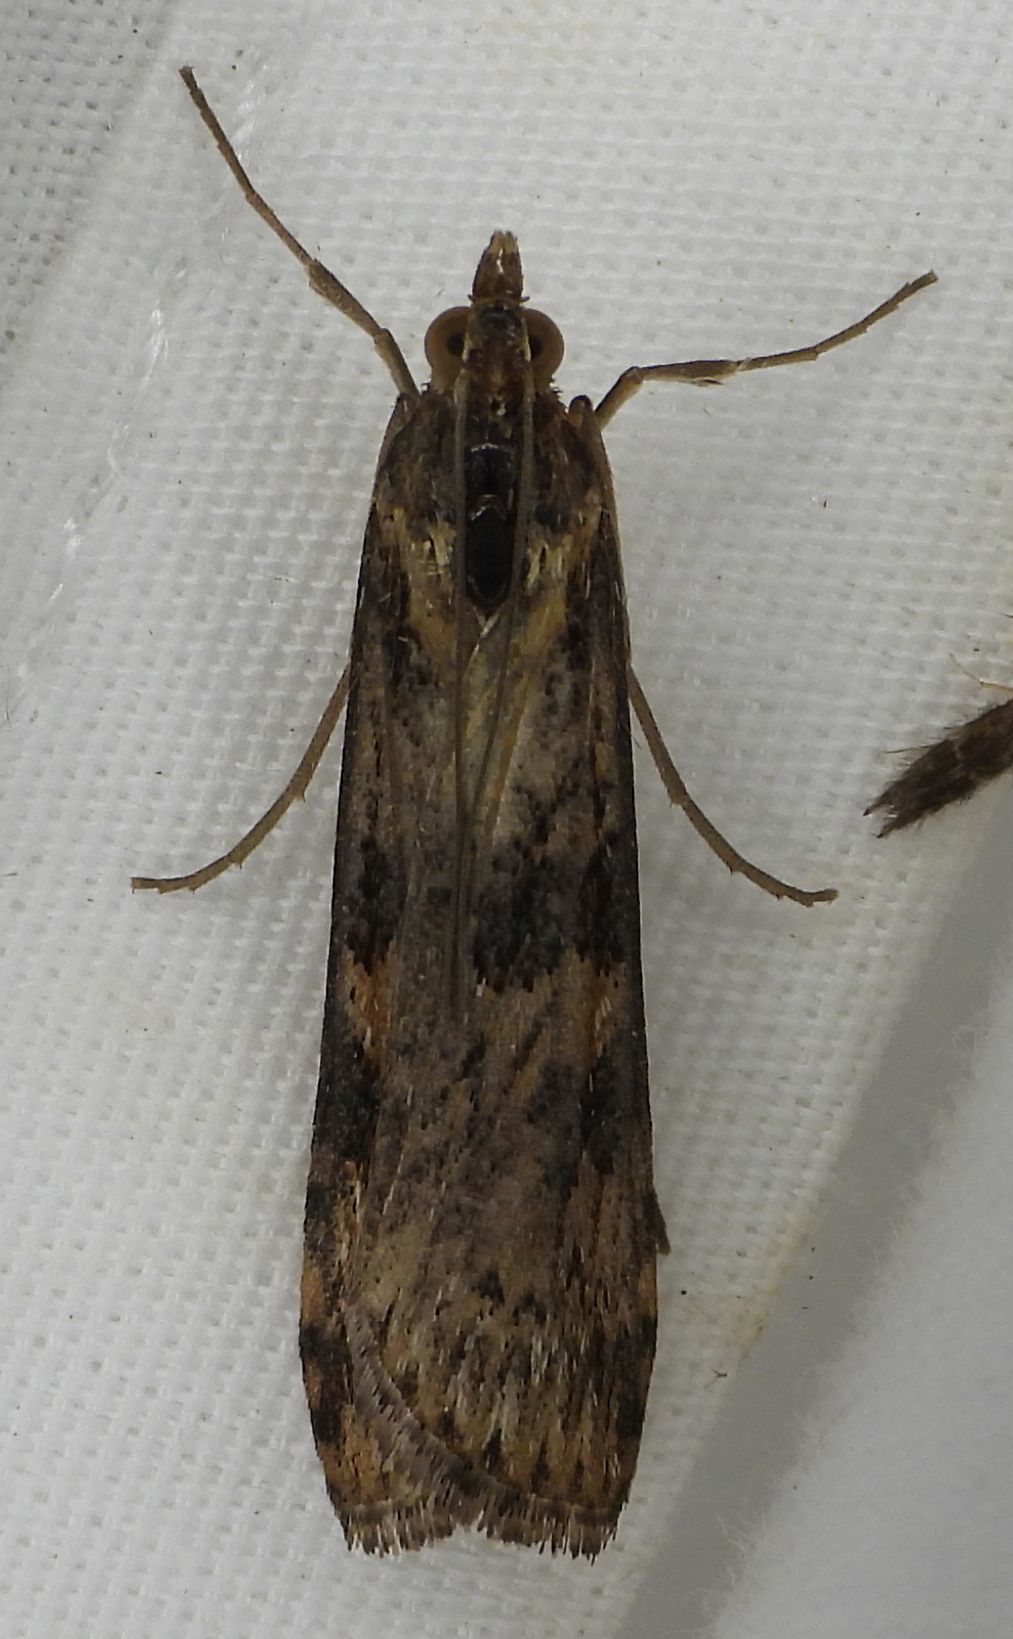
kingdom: Animalia
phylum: Arthropoda
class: Insecta
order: Lepidoptera
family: Crambidae
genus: Nomophila
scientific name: Nomophila nearctica
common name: American rush veneer
